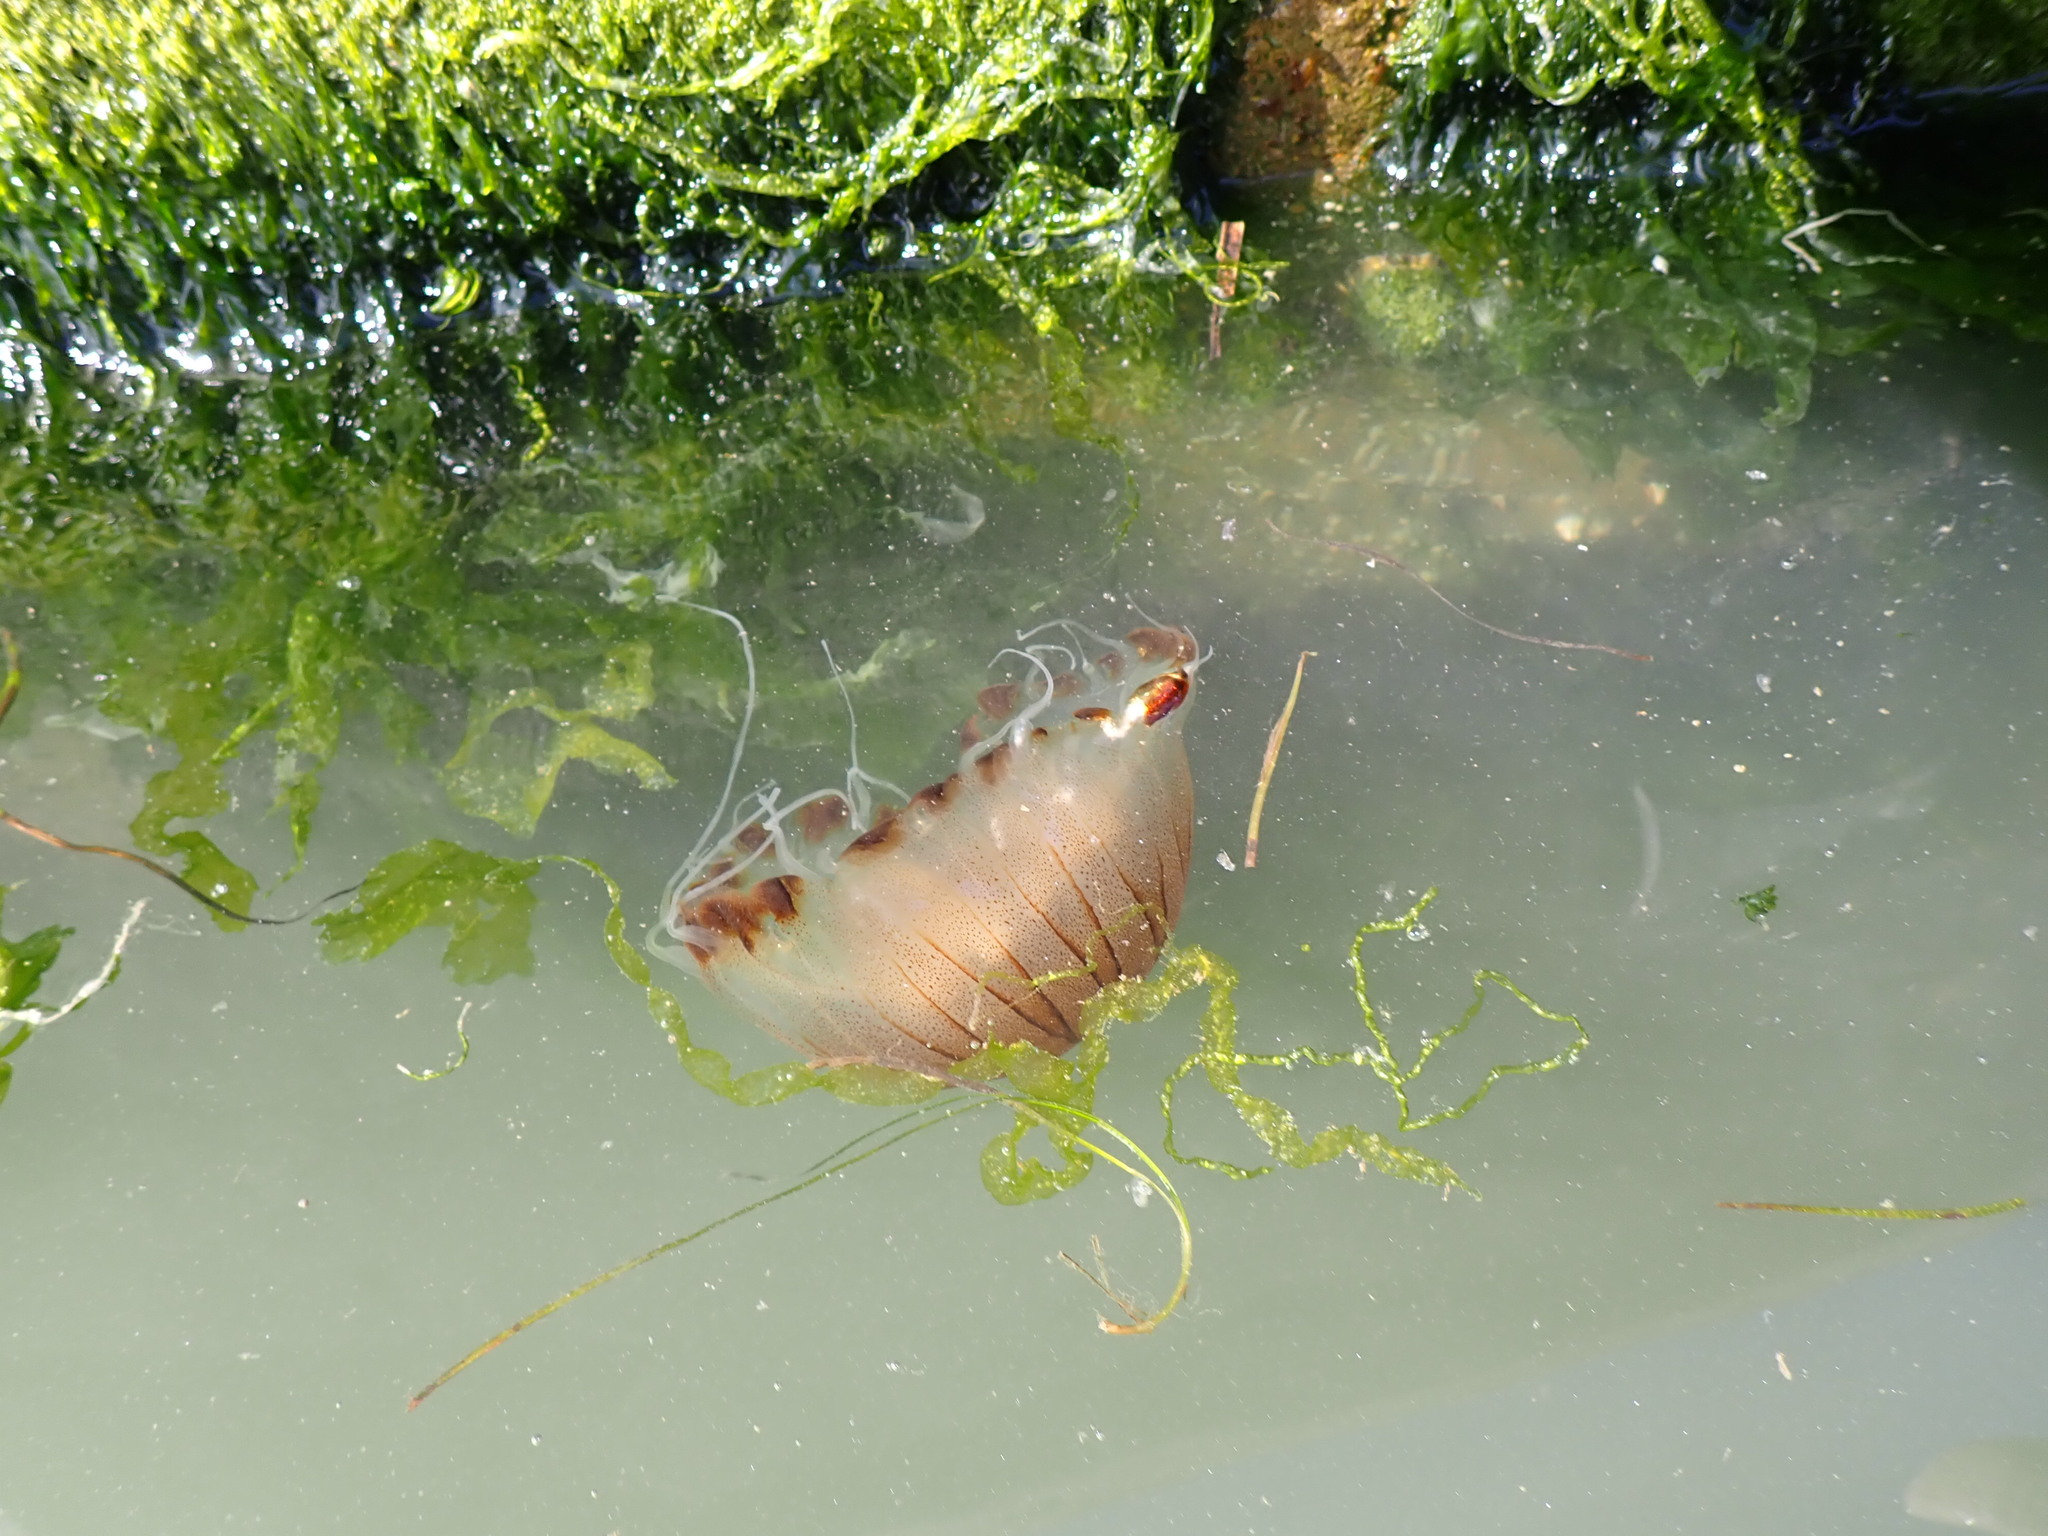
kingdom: Animalia
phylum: Cnidaria
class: Scyphozoa
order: Semaeostomeae
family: Pelagiidae
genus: Chrysaora
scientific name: Chrysaora hysoscella
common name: Compass jellyfish
